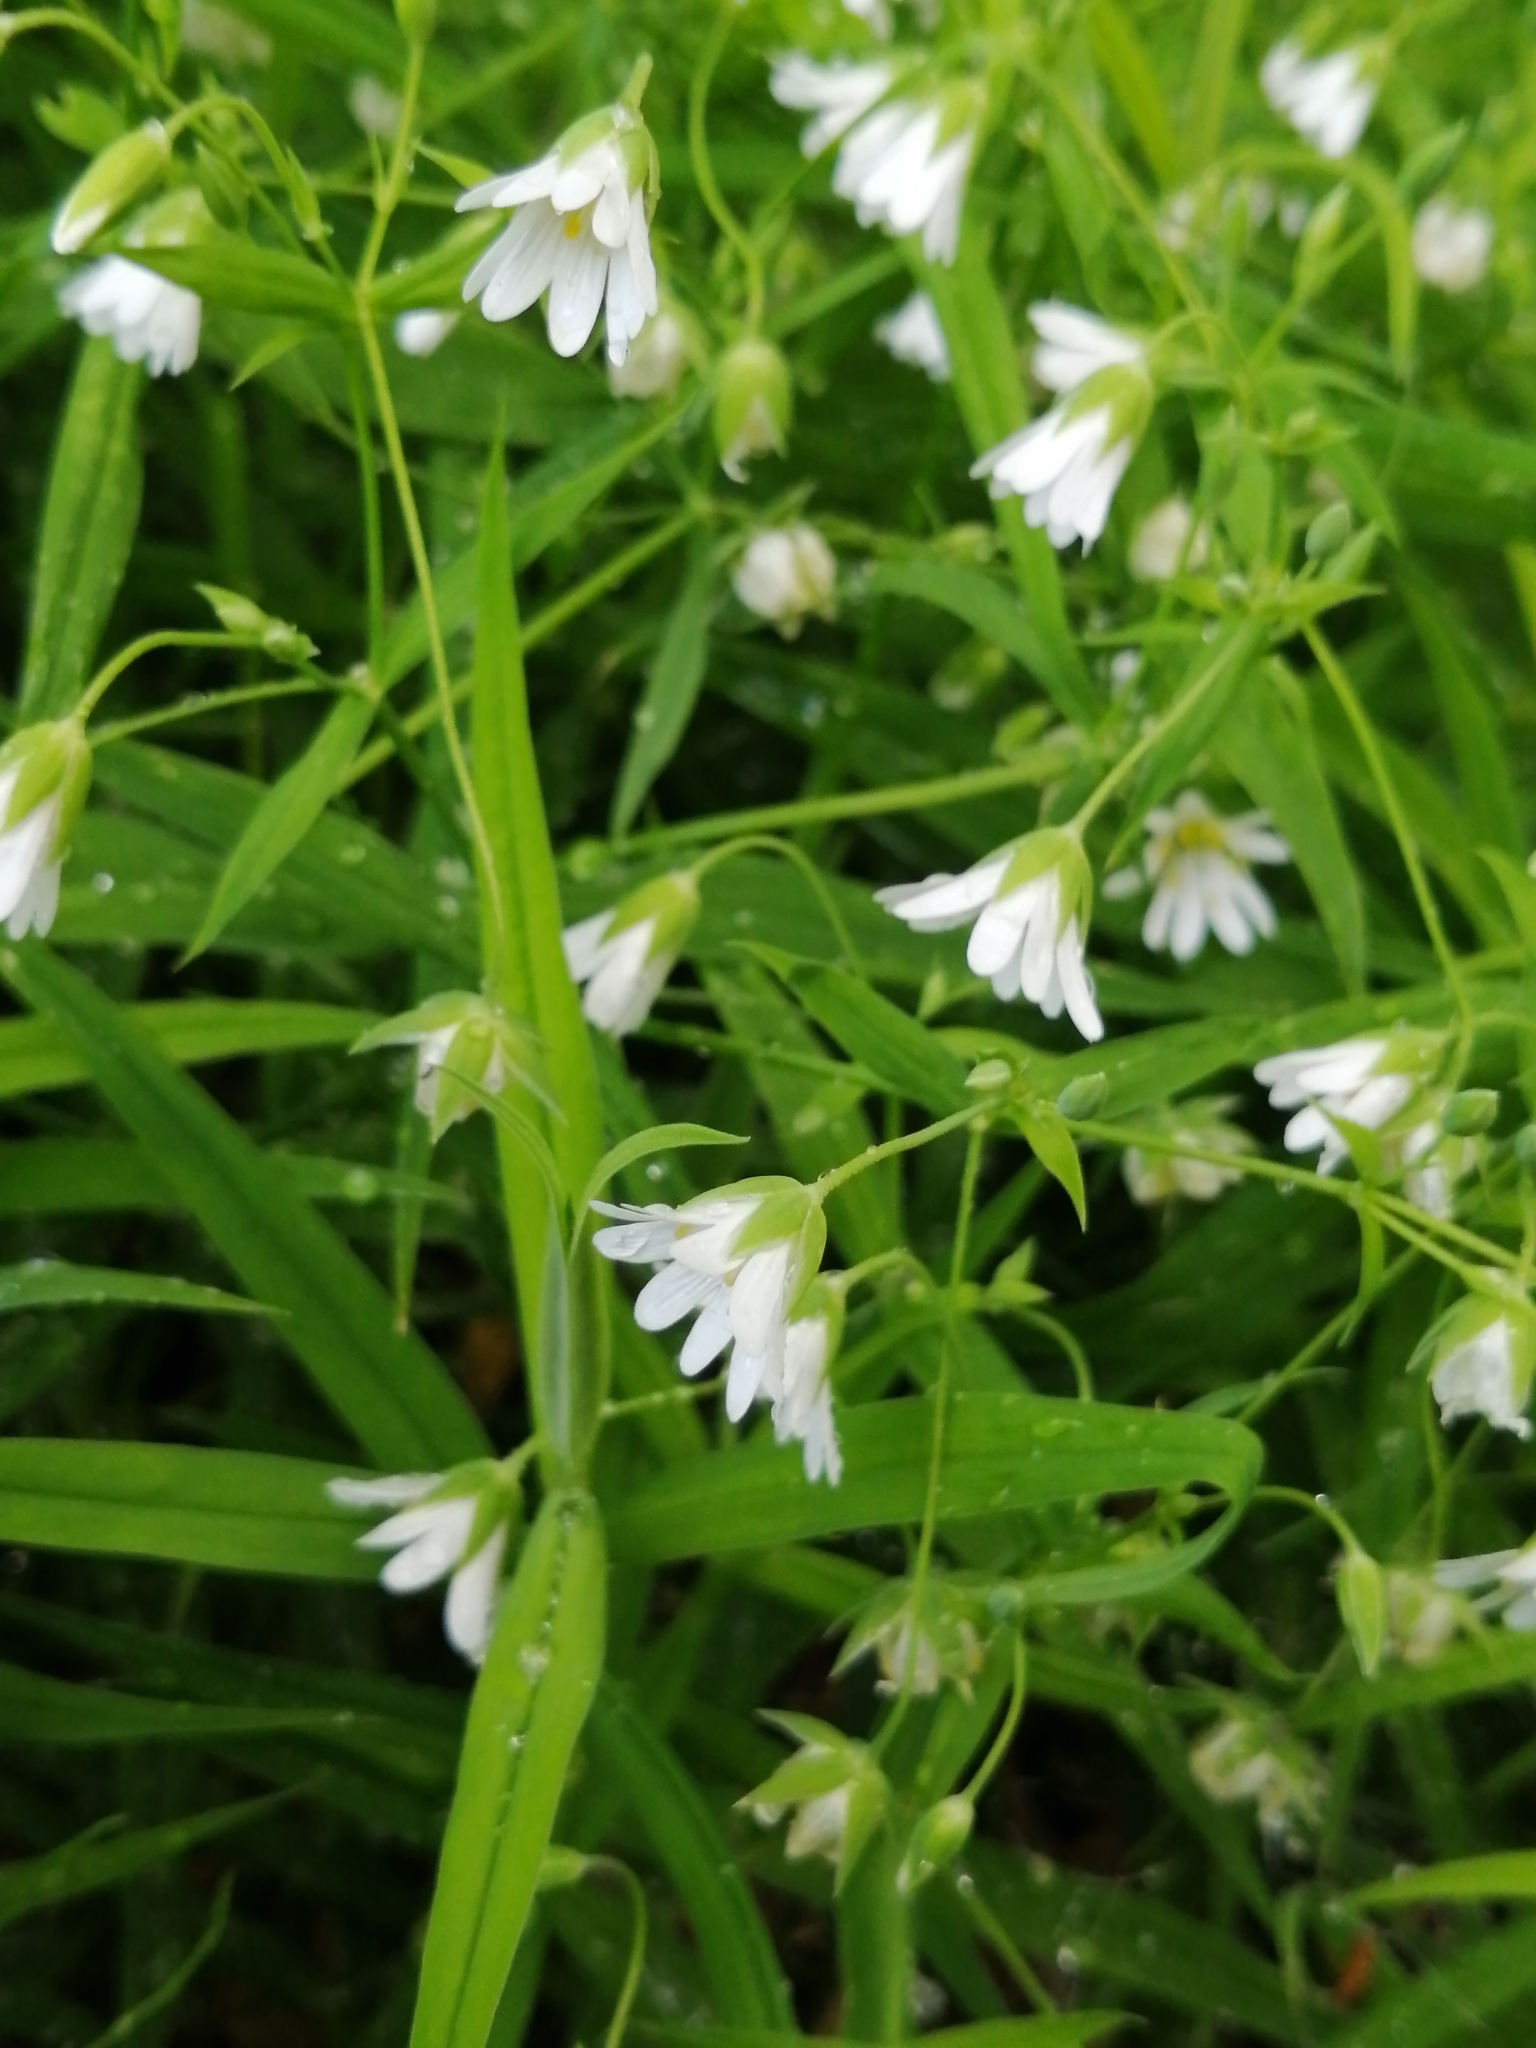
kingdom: Plantae
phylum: Tracheophyta
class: Magnoliopsida
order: Caryophyllales
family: Caryophyllaceae
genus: Rabelera
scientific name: Rabelera holostea
